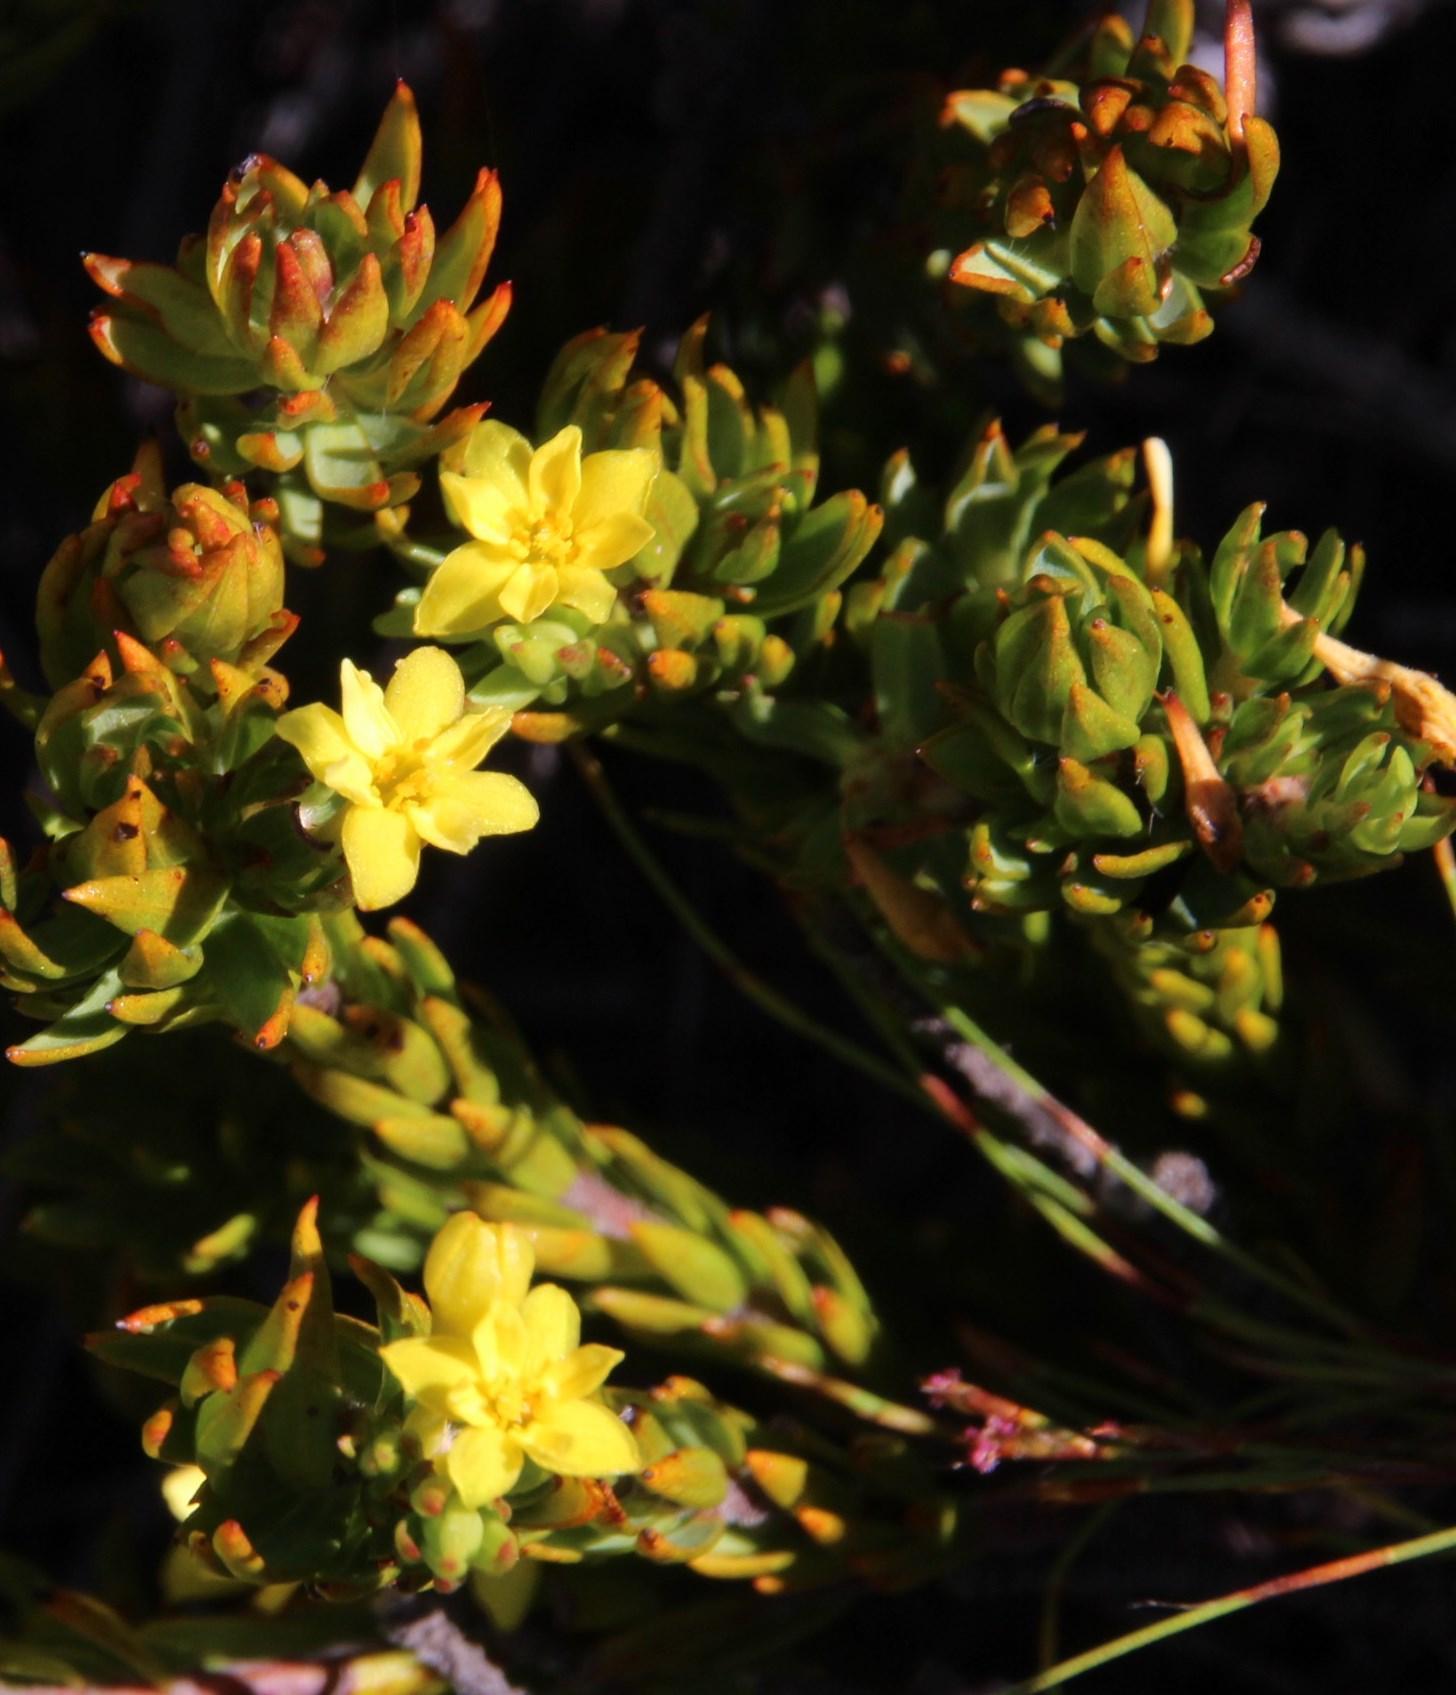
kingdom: Plantae
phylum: Tracheophyta
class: Magnoliopsida
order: Malvales
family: Thymelaeaceae
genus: Gnidia
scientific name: Gnidia juniperifolia
